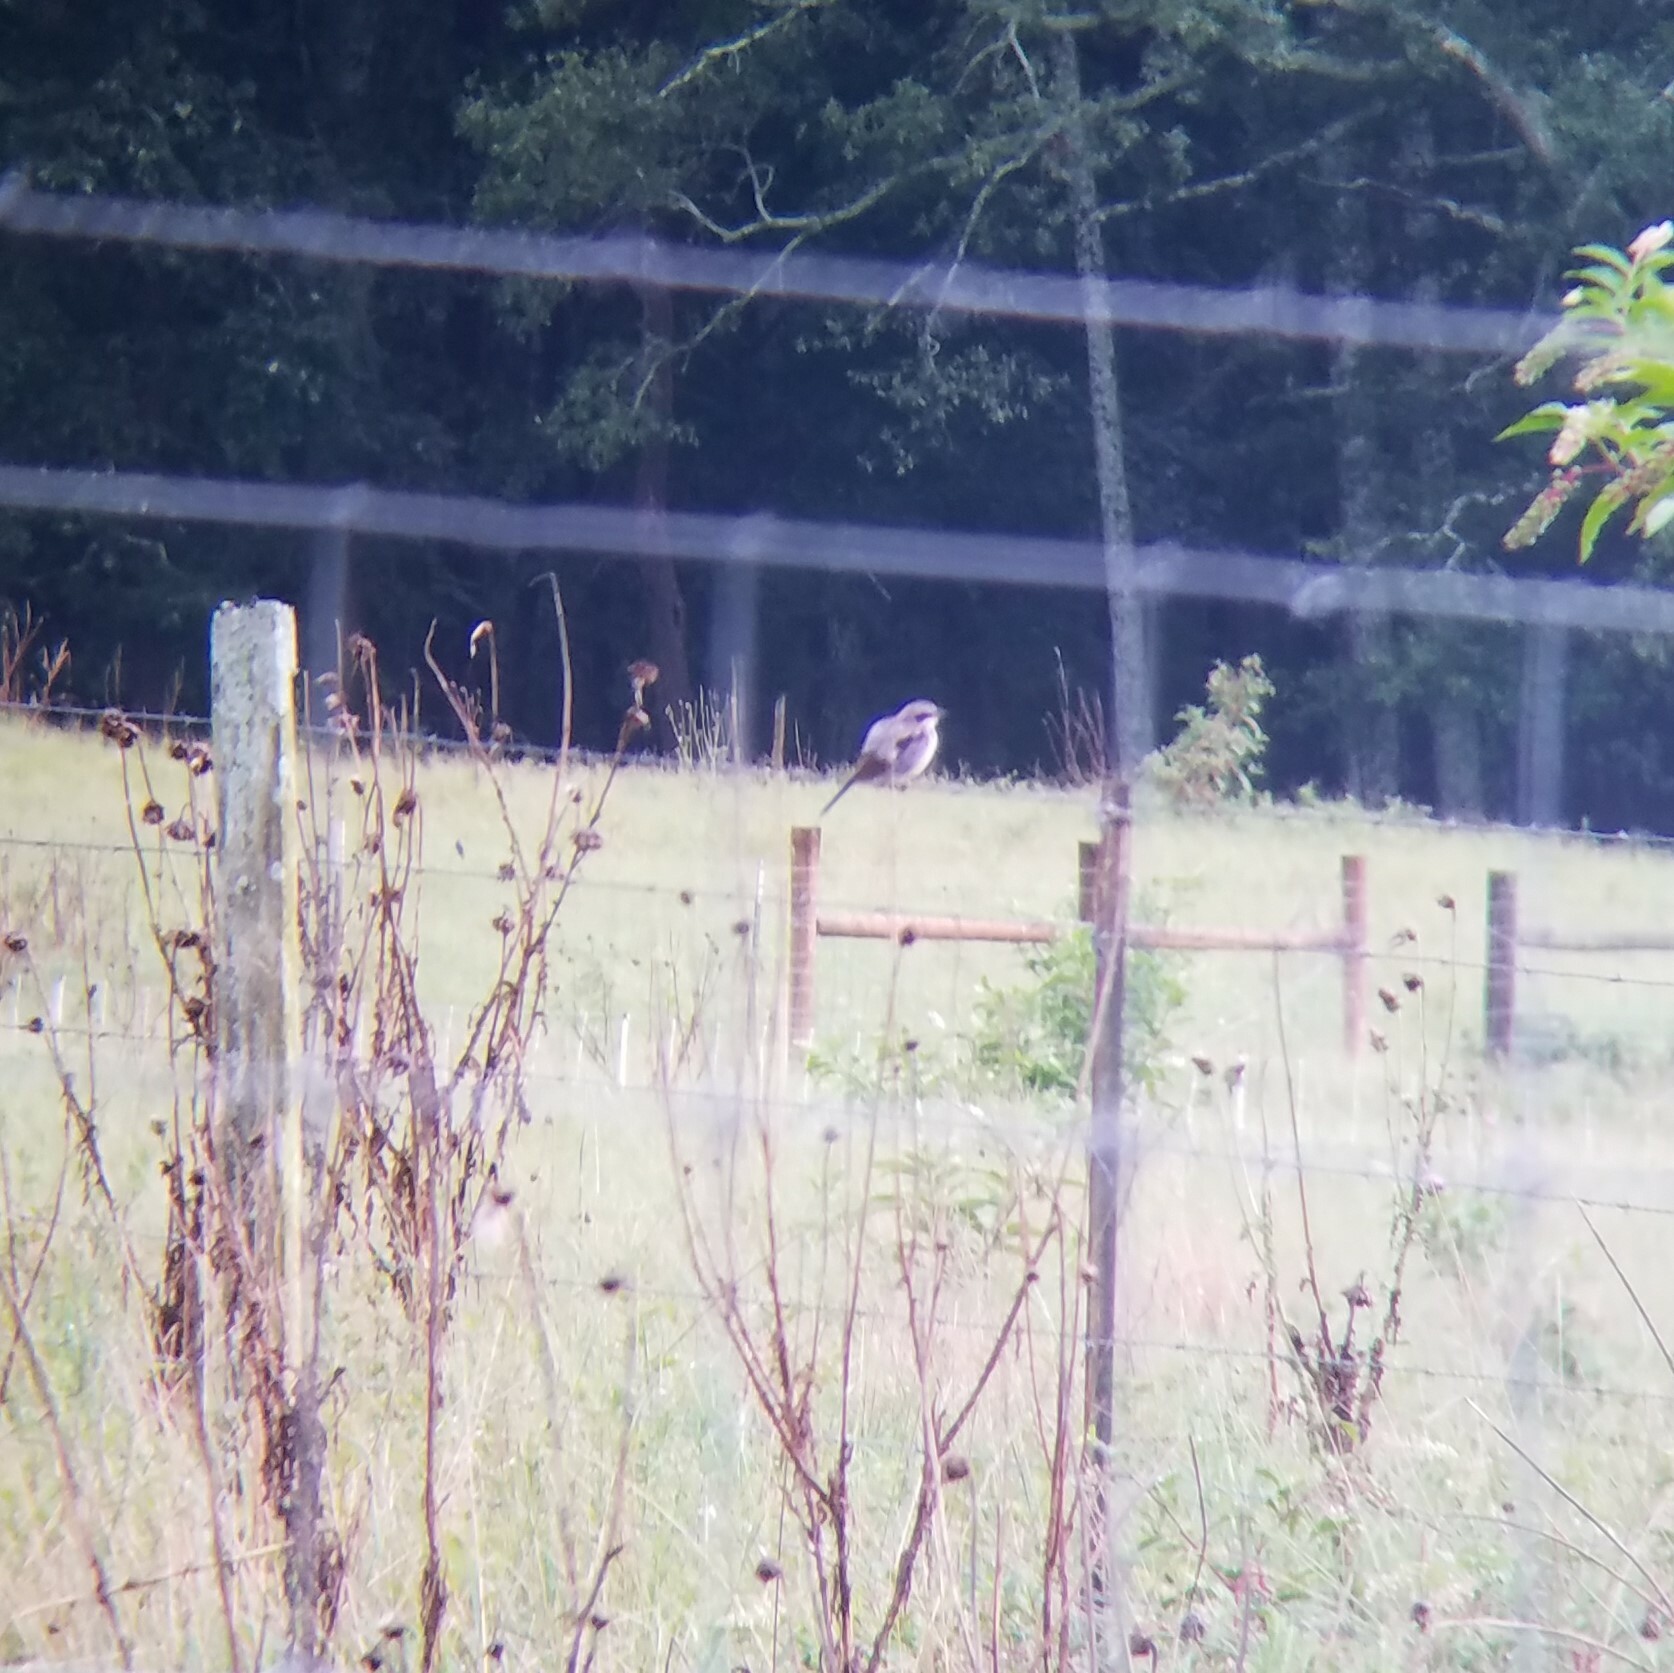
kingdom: Animalia
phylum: Chordata
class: Aves
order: Passeriformes
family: Laniidae
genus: Lanius
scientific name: Lanius ludovicianus
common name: Loggerhead shrike
